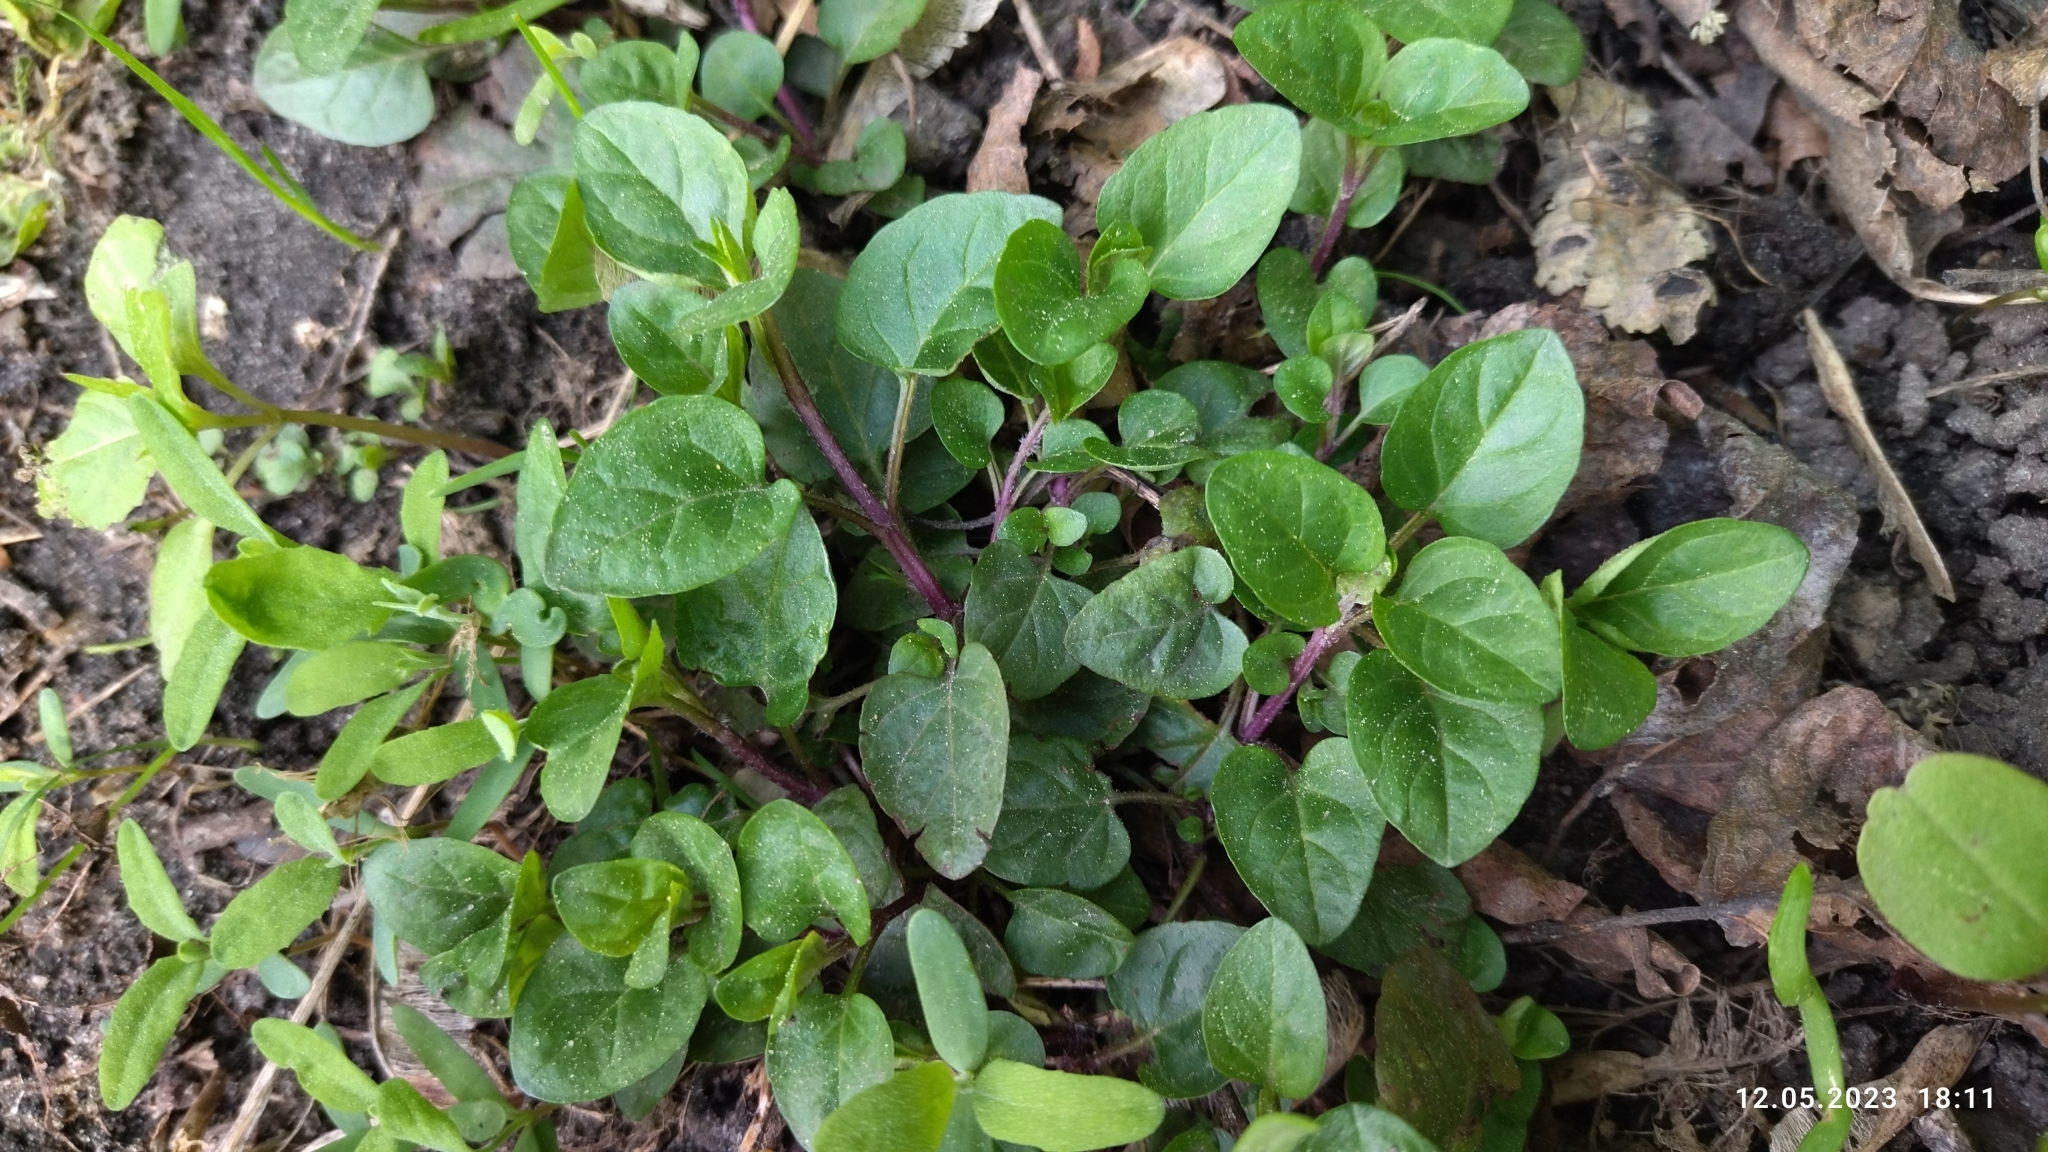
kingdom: Plantae
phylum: Tracheophyta
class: Magnoliopsida
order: Lamiales
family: Lamiaceae
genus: Prunella
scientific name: Prunella vulgaris
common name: Heal-all
